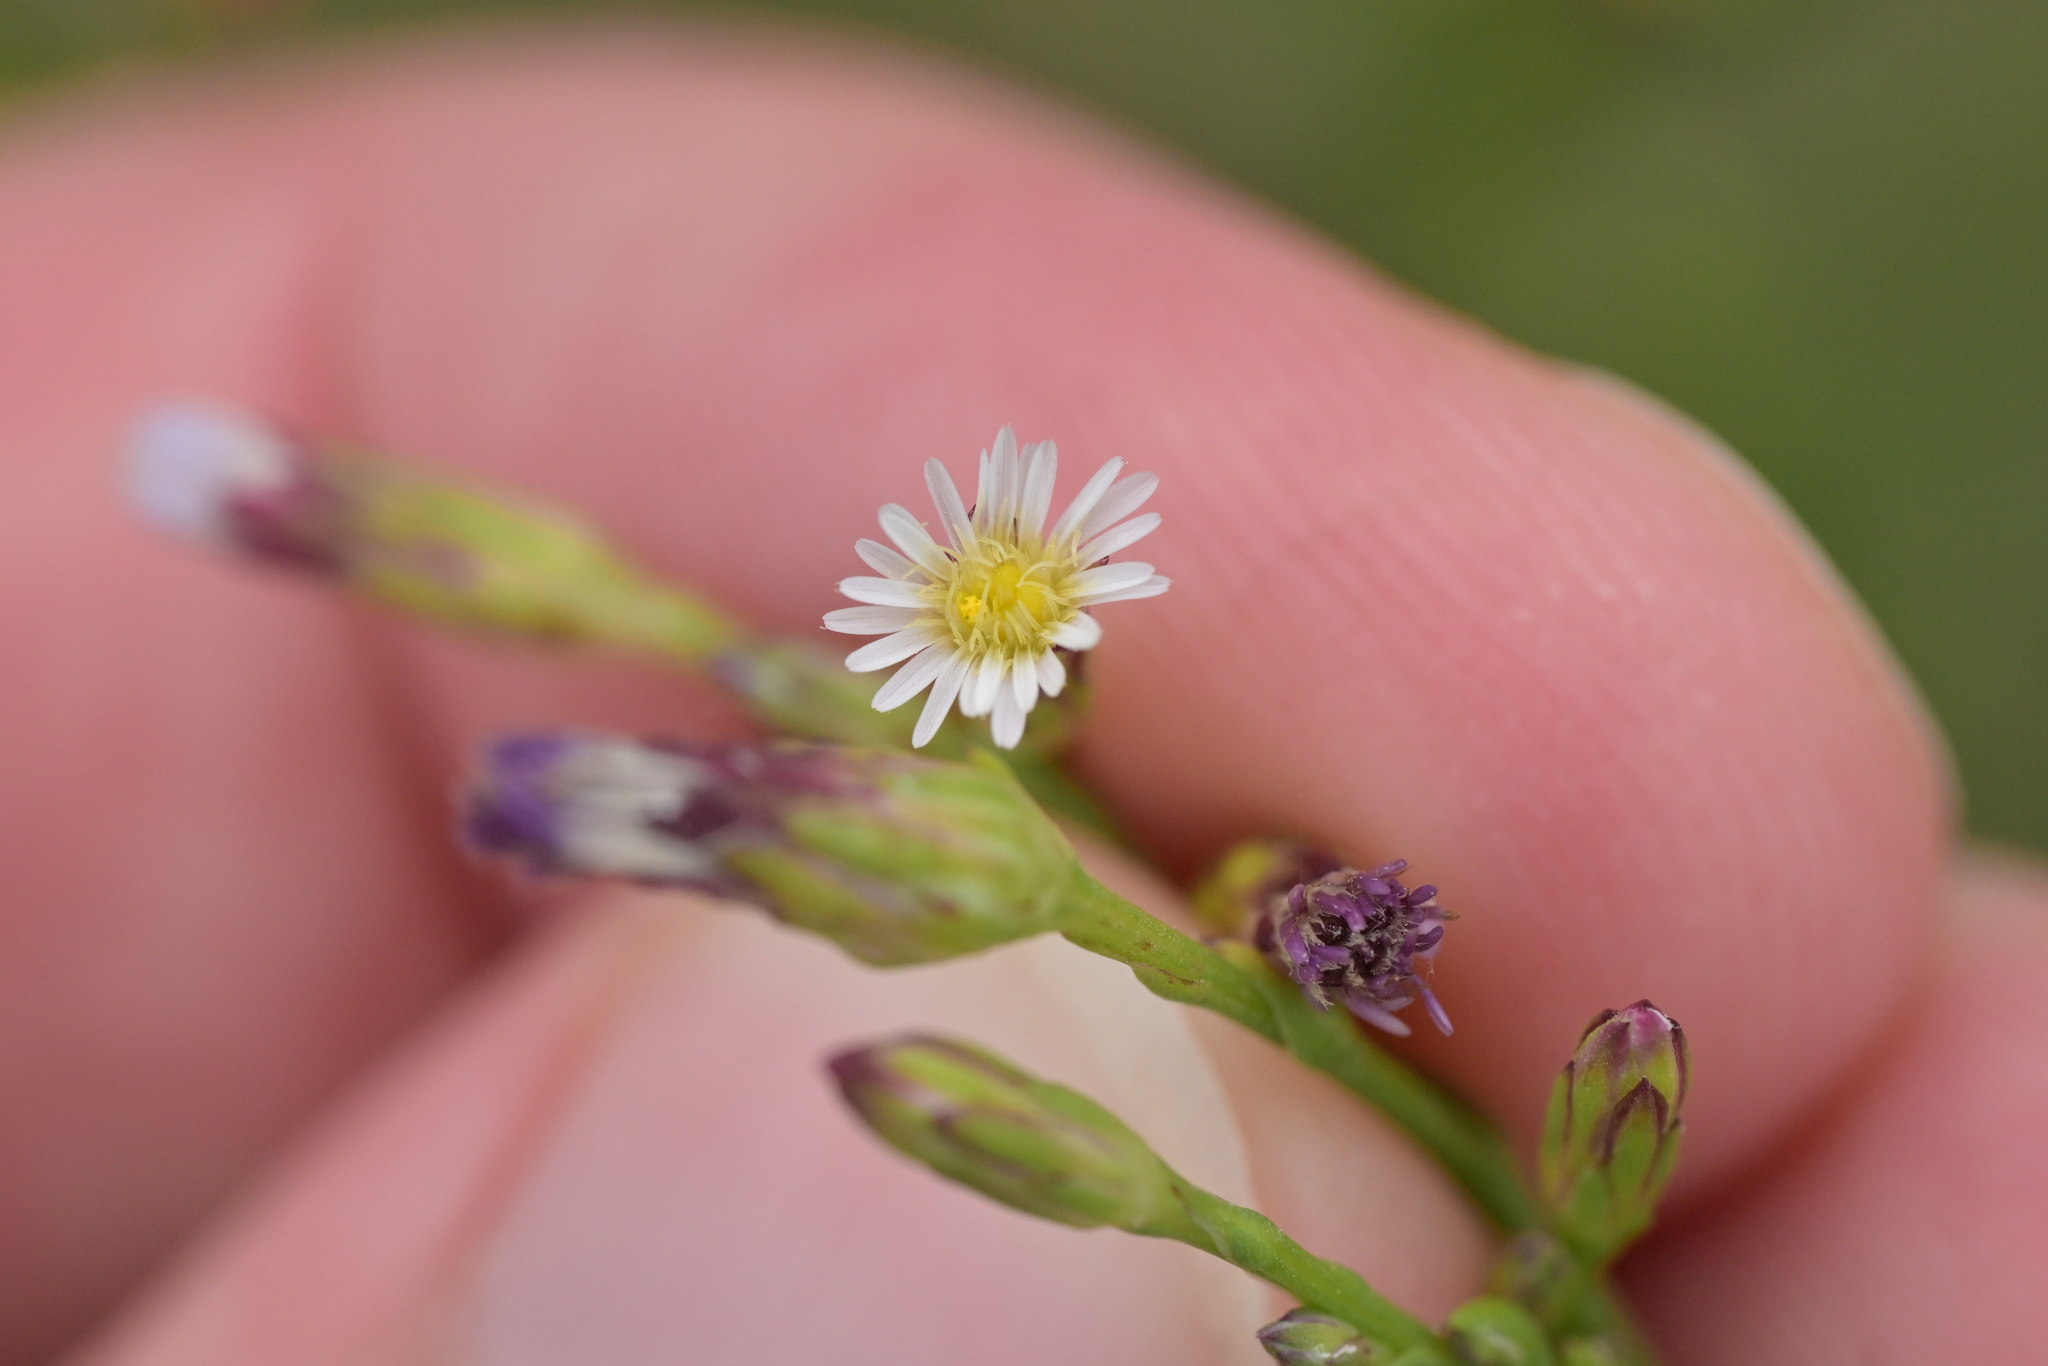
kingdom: Plantae
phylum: Tracheophyta
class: Magnoliopsida
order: Asterales
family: Asteraceae
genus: Symphyotrichum
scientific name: Symphyotrichum subulatum
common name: Annual saltmarsh aster
